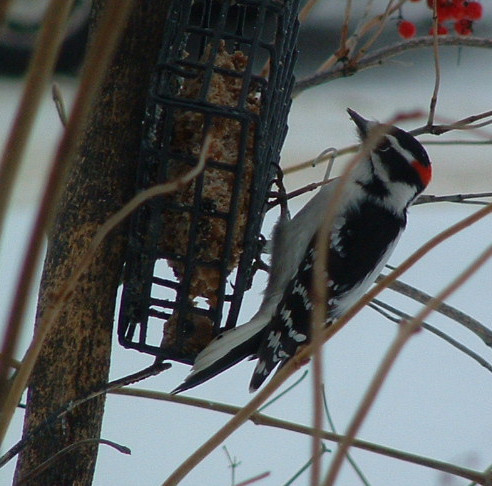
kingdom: Animalia
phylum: Chordata
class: Aves
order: Piciformes
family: Picidae
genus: Dryobates
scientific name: Dryobates pubescens
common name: Downy woodpecker
